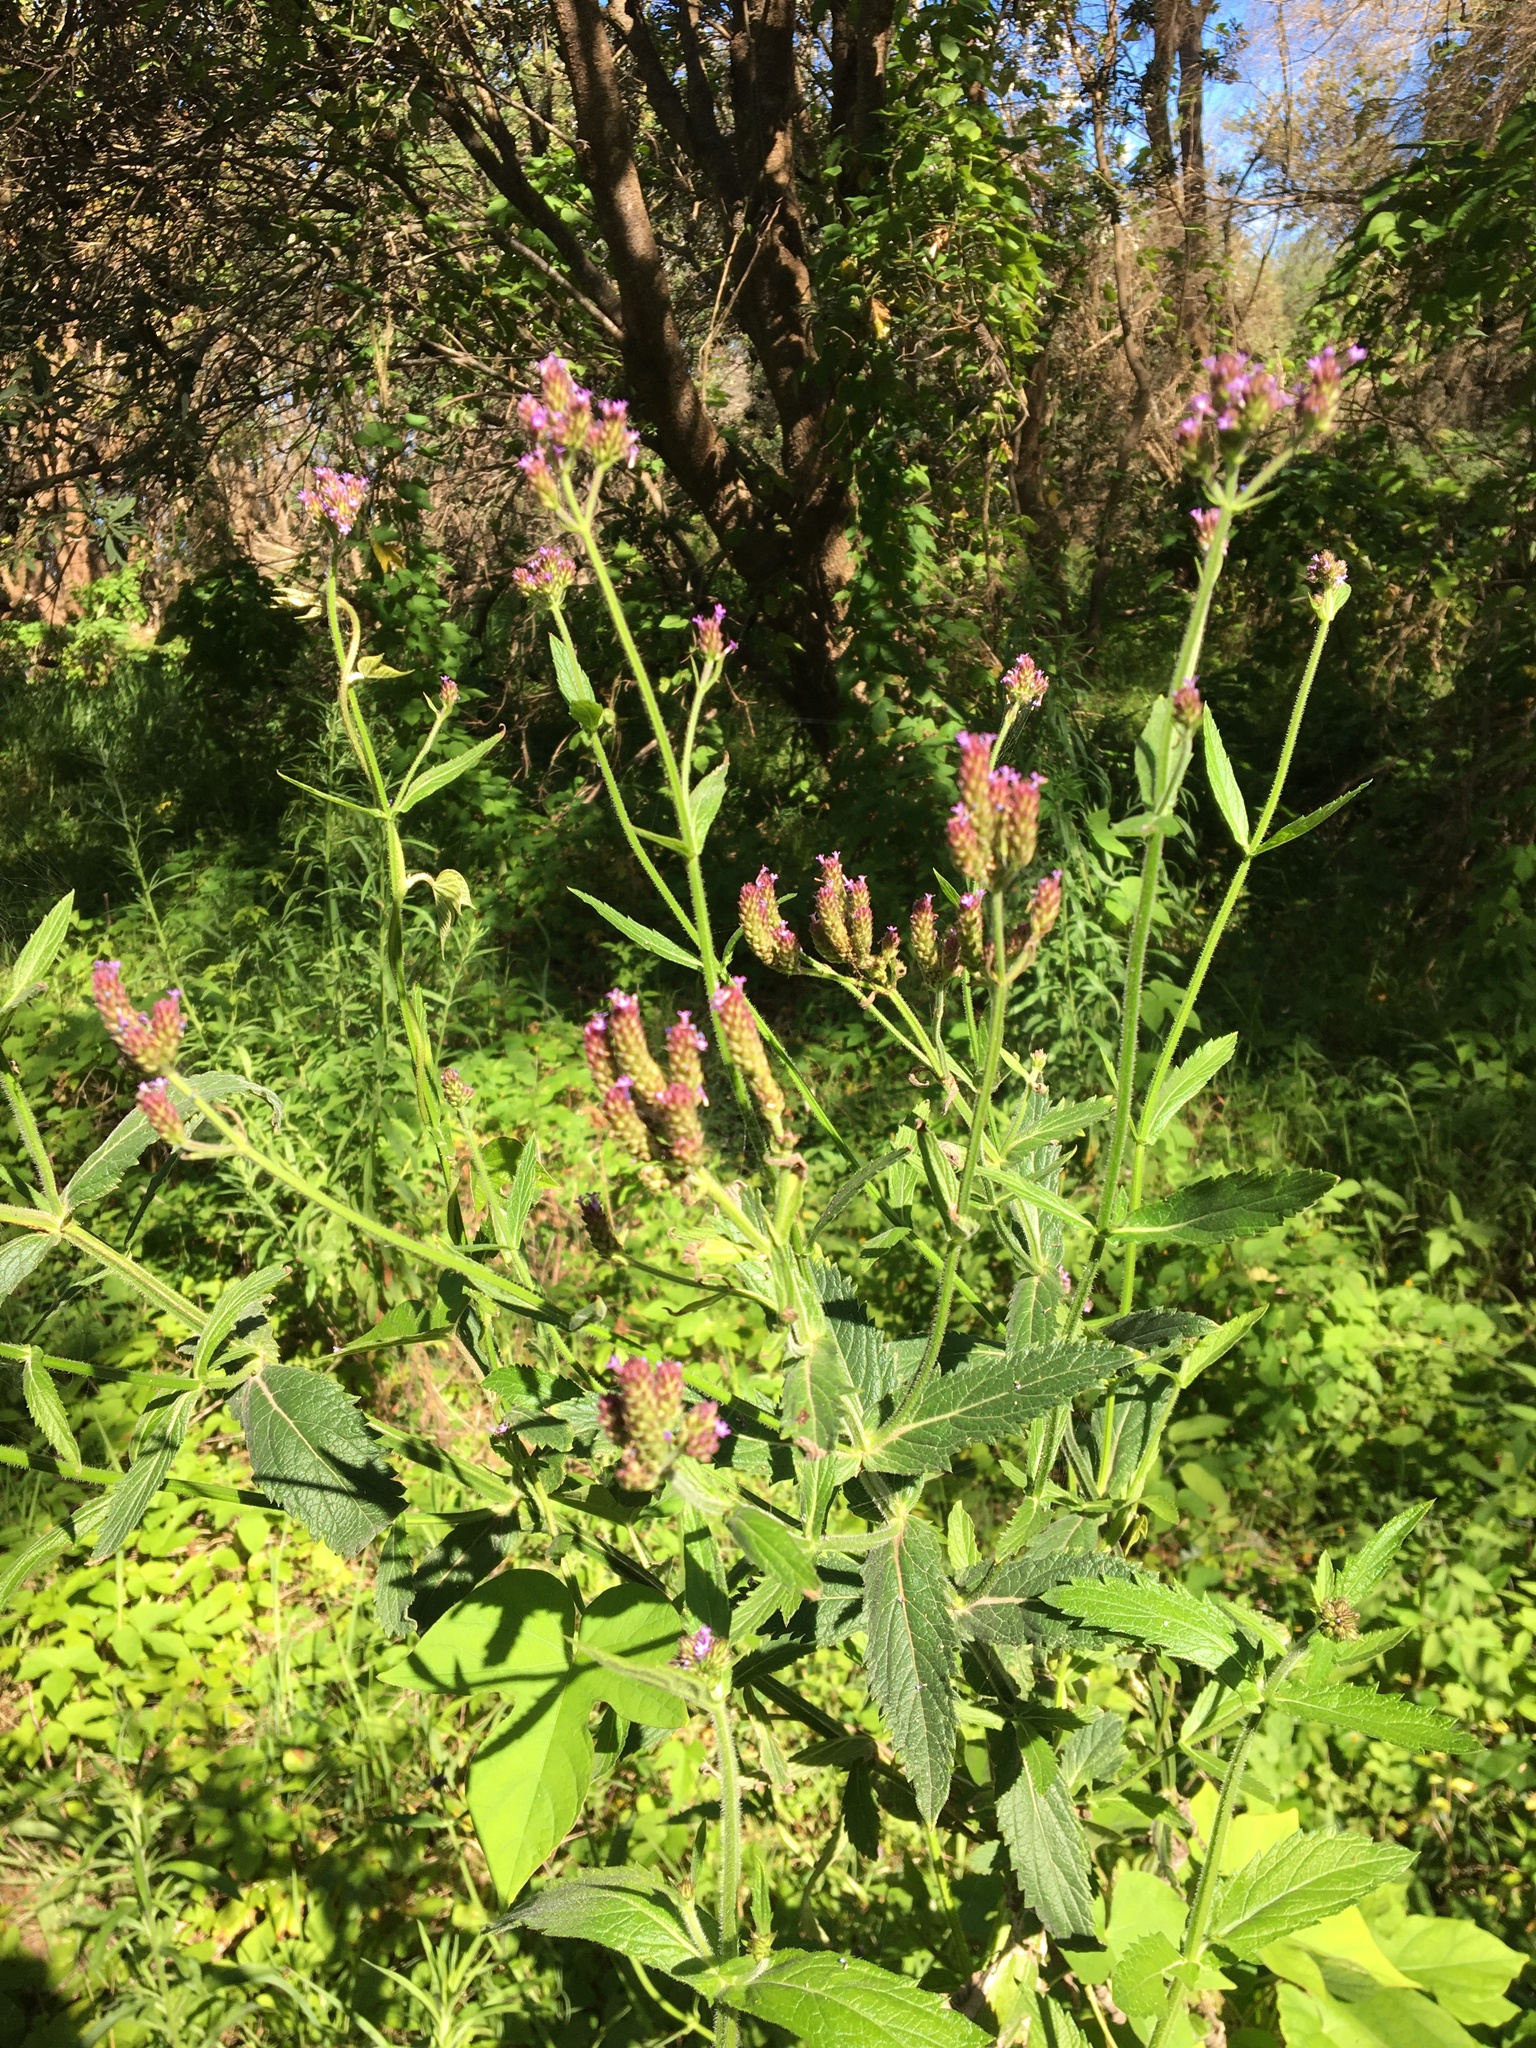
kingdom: Plantae
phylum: Tracheophyta
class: Magnoliopsida
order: Lamiales
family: Verbenaceae
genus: Verbena
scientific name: Verbena bonariensis
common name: Purpletop vervain
